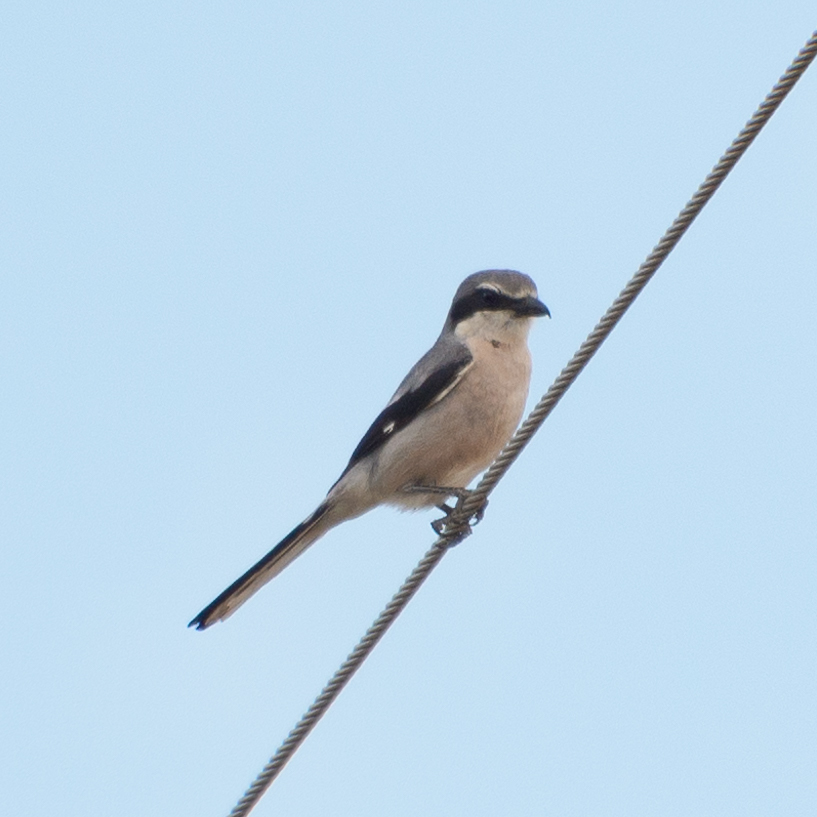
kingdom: Animalia
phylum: Chordata
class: Aves
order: Passeriformes
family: Laniidae
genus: Lanius
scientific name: Lanius meridionalis
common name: Iberian grey shrike
